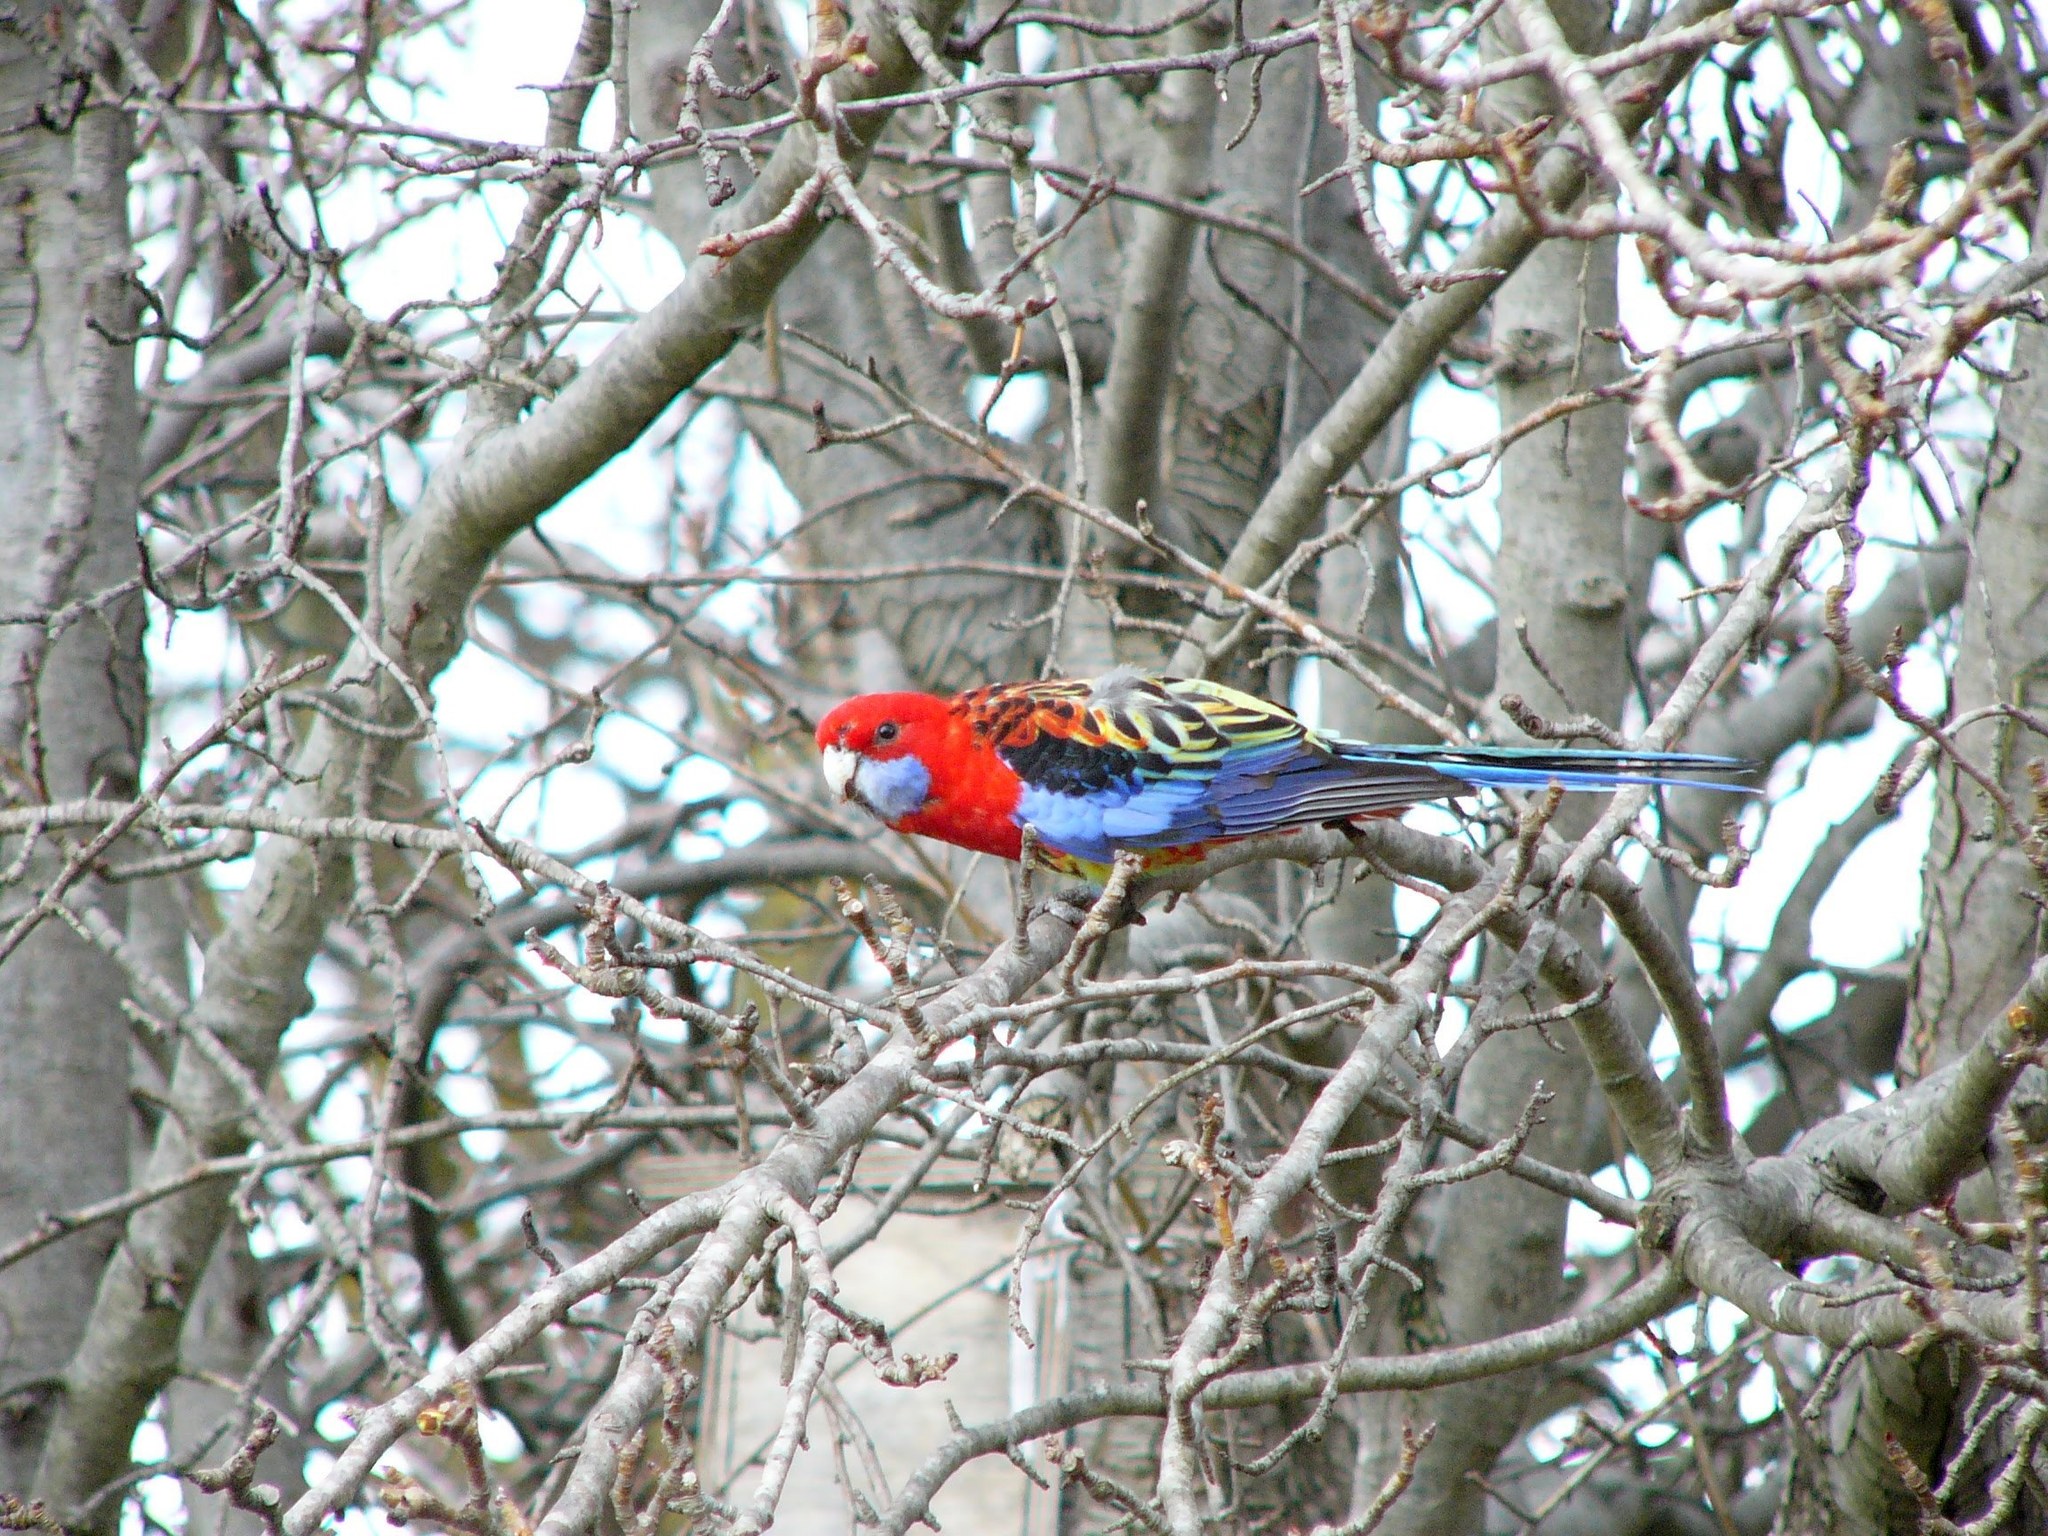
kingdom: Animalia
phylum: Chordata
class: Aves
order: Psittaciformes
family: Psittacidae
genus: Platycercus
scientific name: Platycercus
